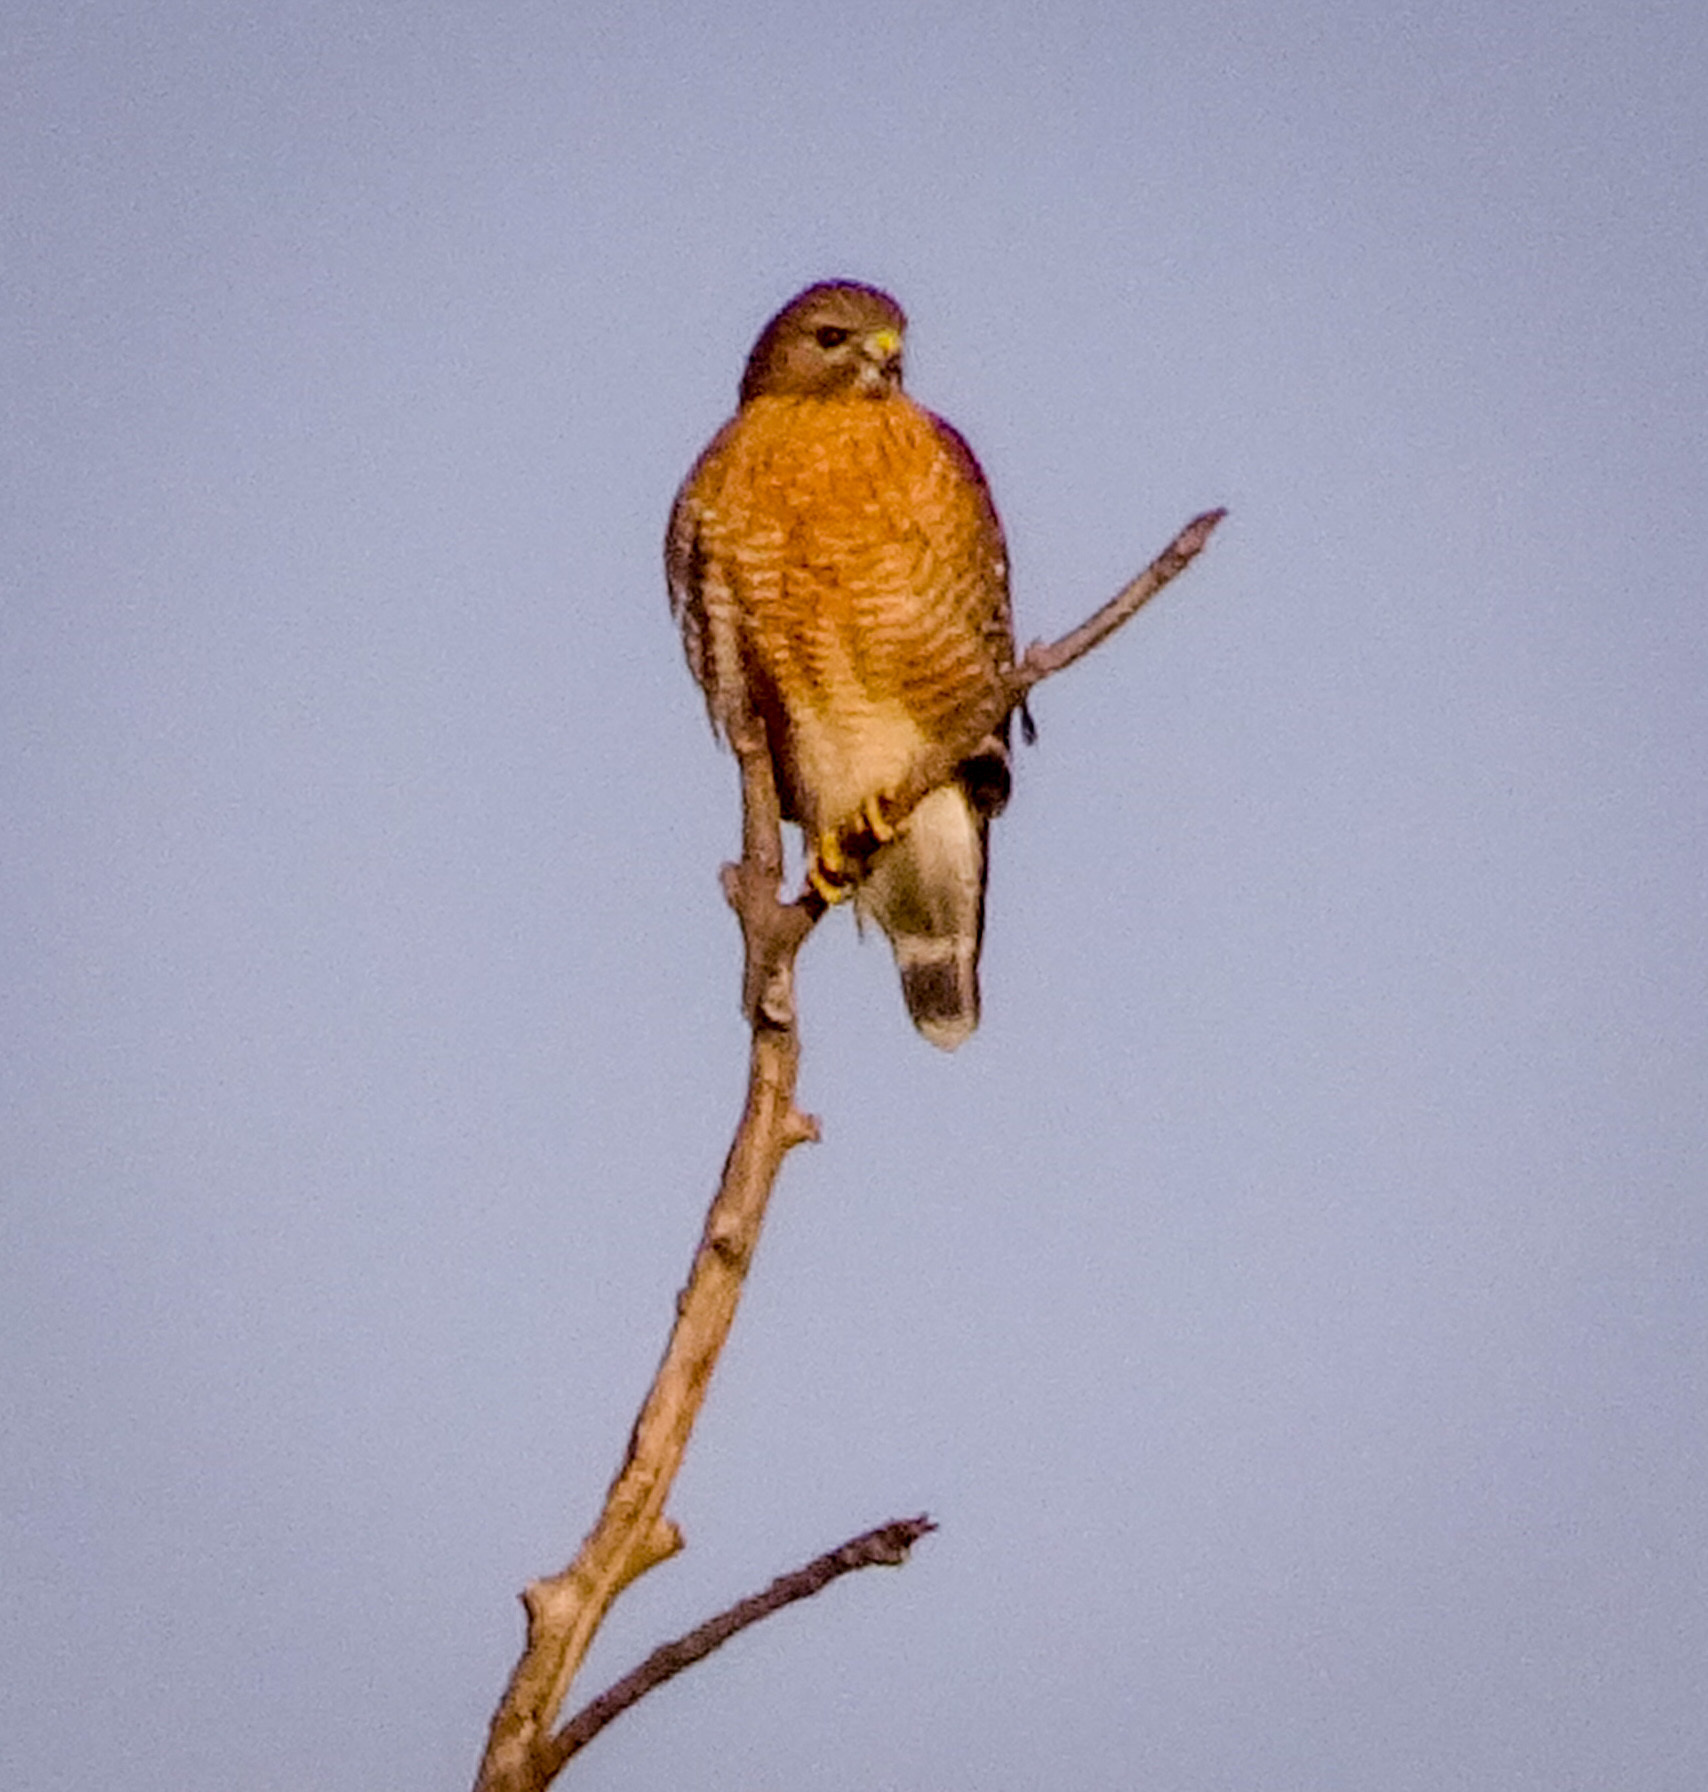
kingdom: Animalia
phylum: Chordata
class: Aves
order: Accipitriformes
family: Accipitridae
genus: Buteo
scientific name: Buteo lineatus
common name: Red-shouldered hawk
